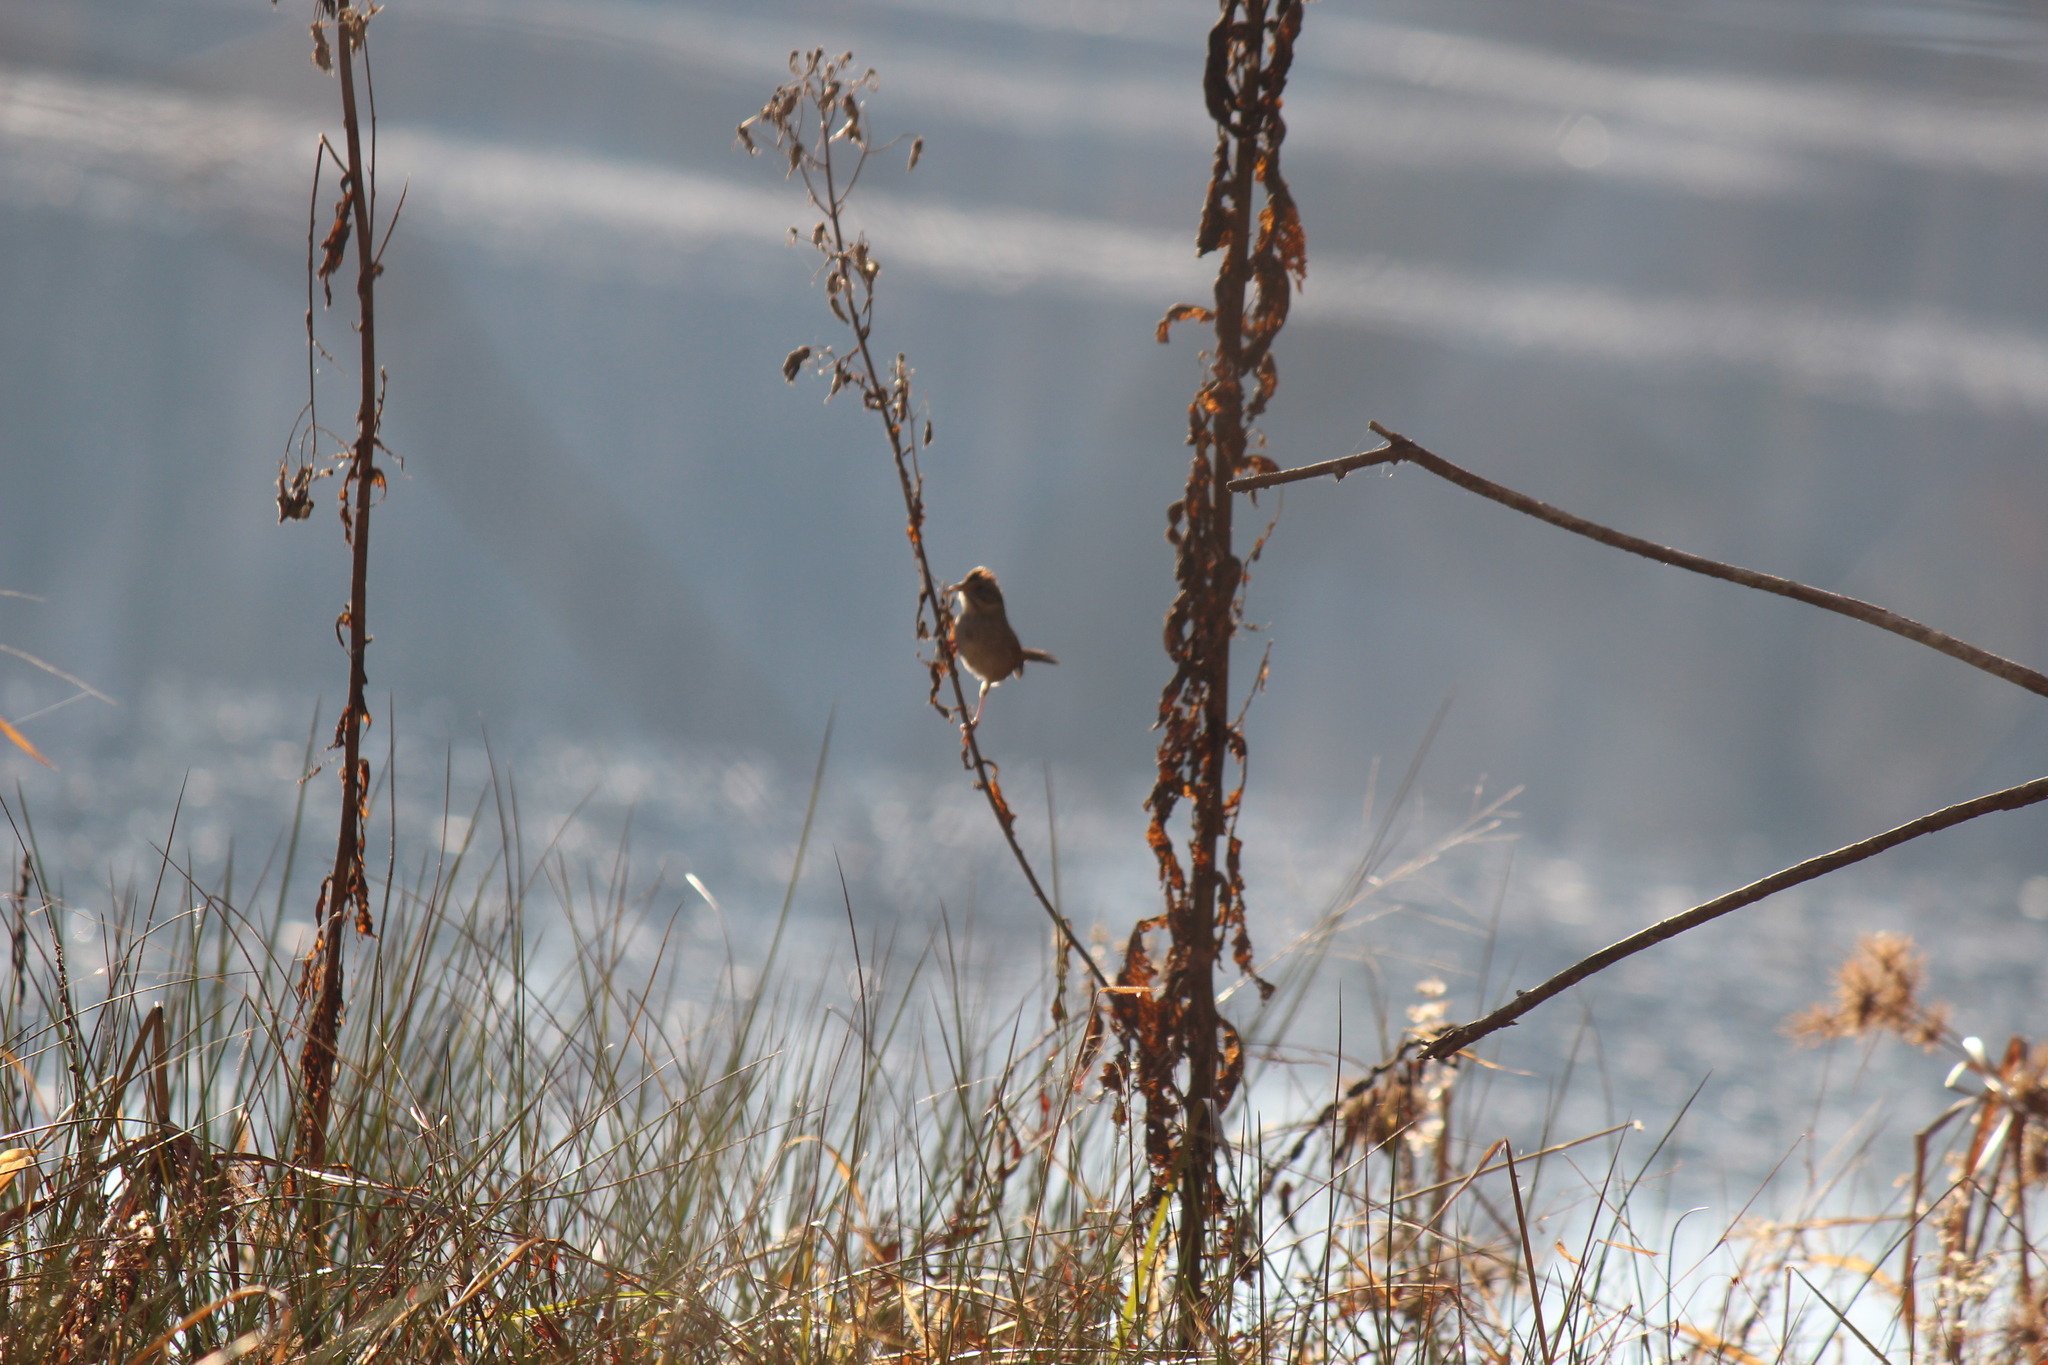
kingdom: Animalia
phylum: Chordata
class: Aves
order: Passeriformes
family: Passerellidae
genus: Melospiza
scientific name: Melospiza georgiana
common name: Swamp sparrow
